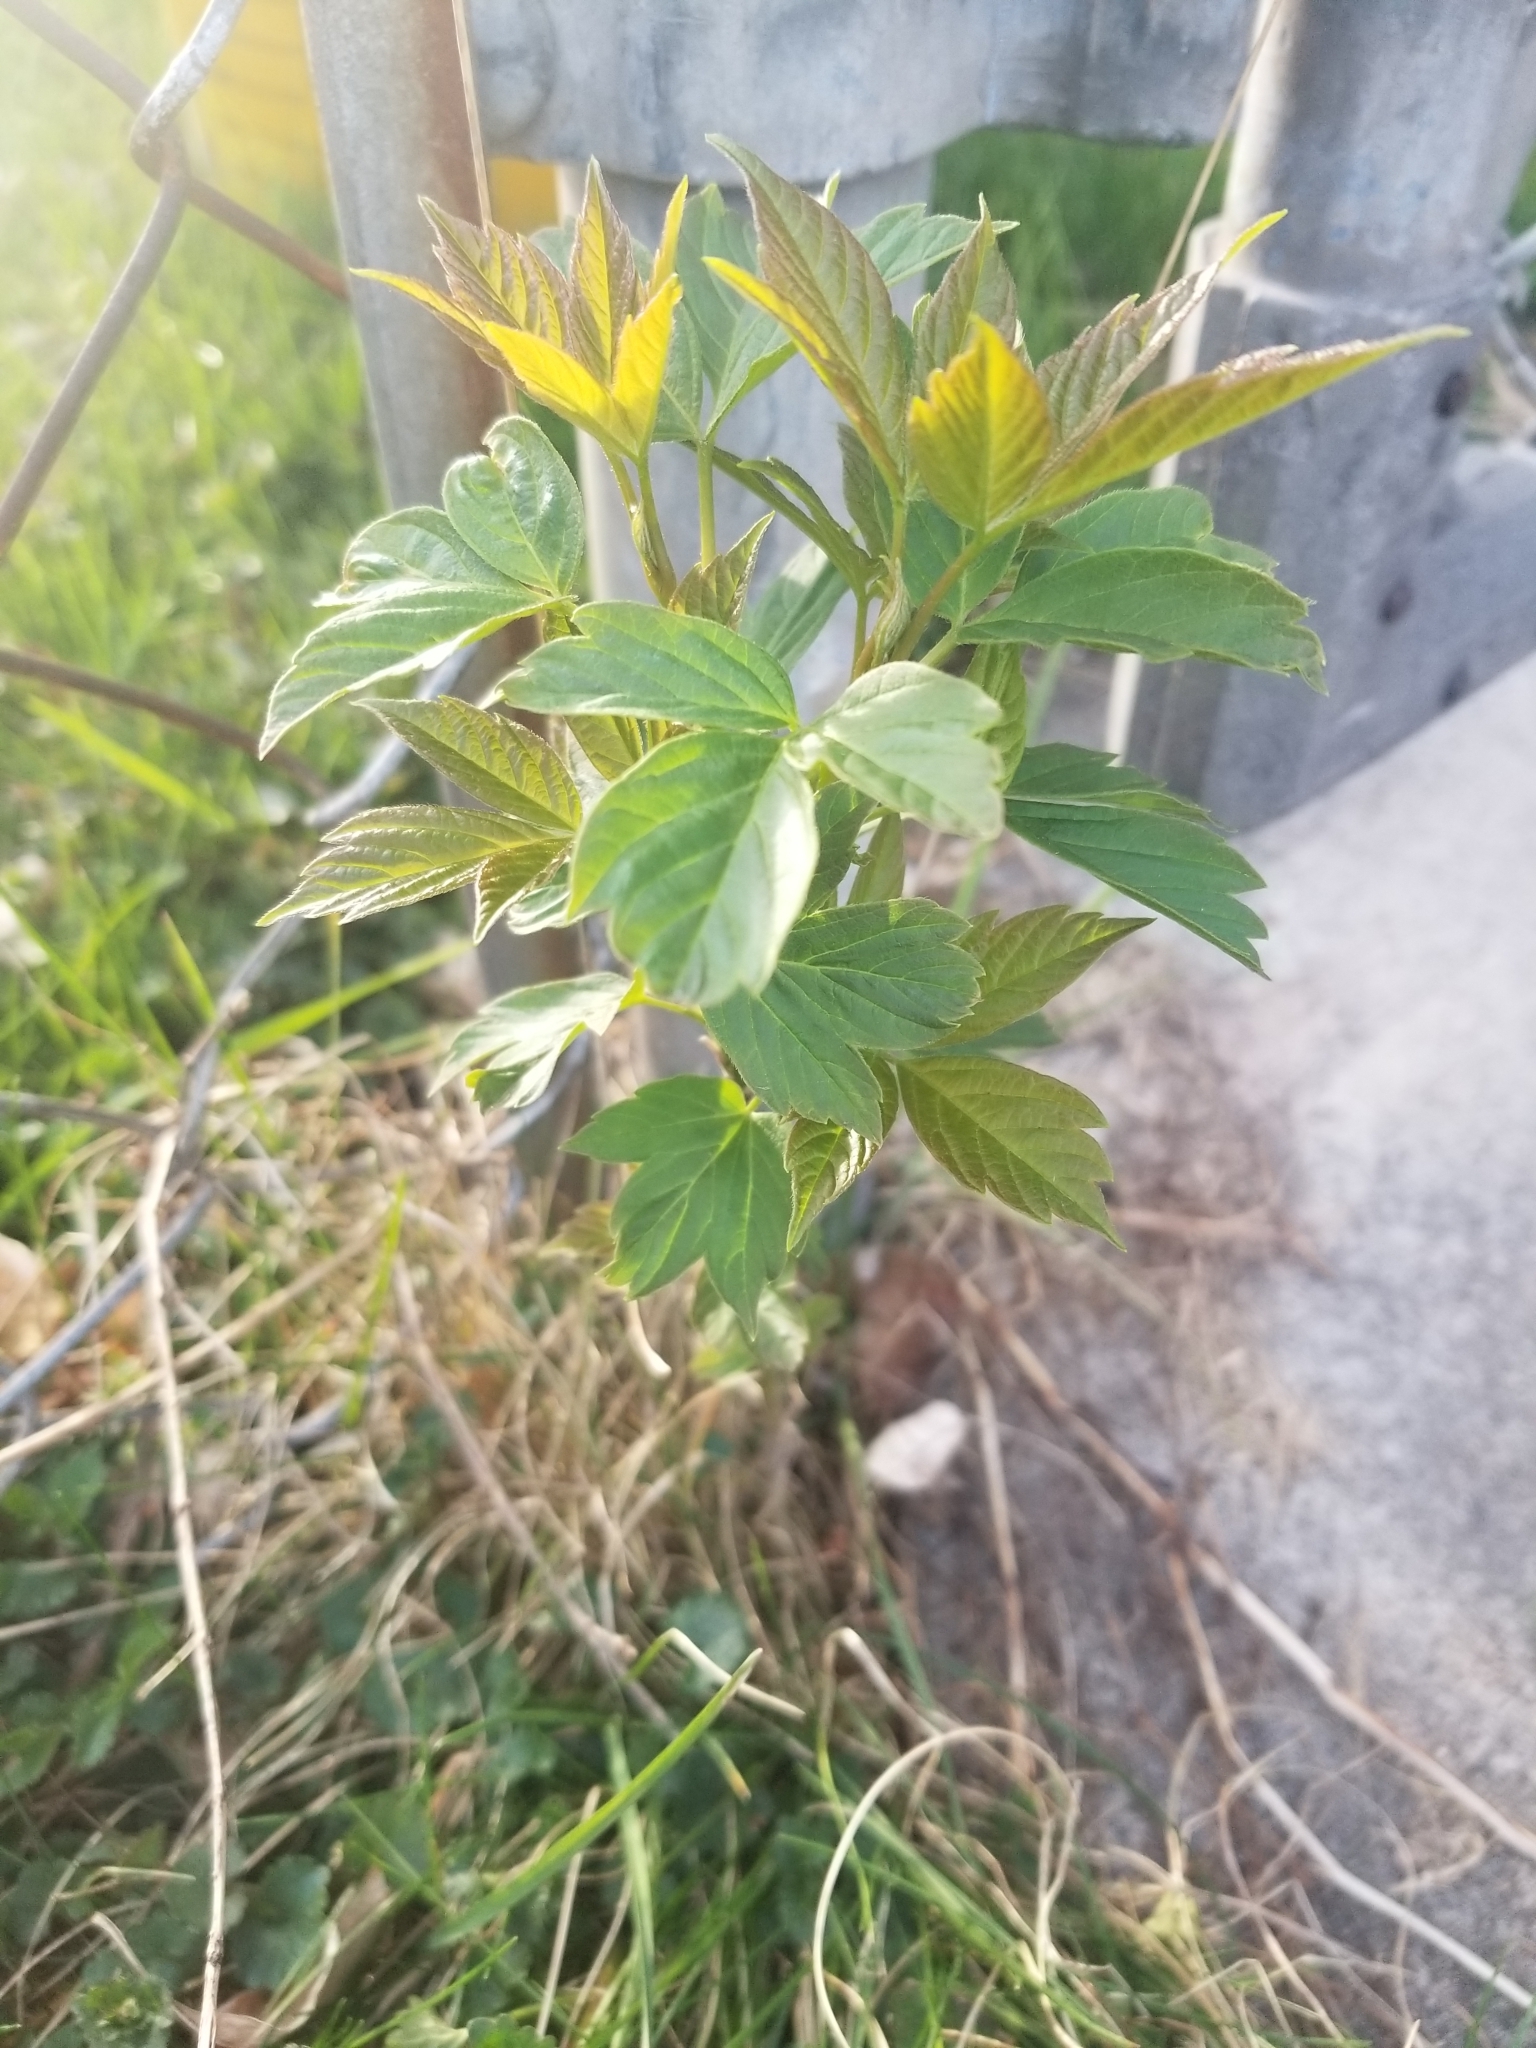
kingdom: Plantae
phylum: Tracheophyta
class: Magnoliopsida
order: Sapindales
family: Sapindaceae
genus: Acer
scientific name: Acer negundo
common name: Ashleaf maple
